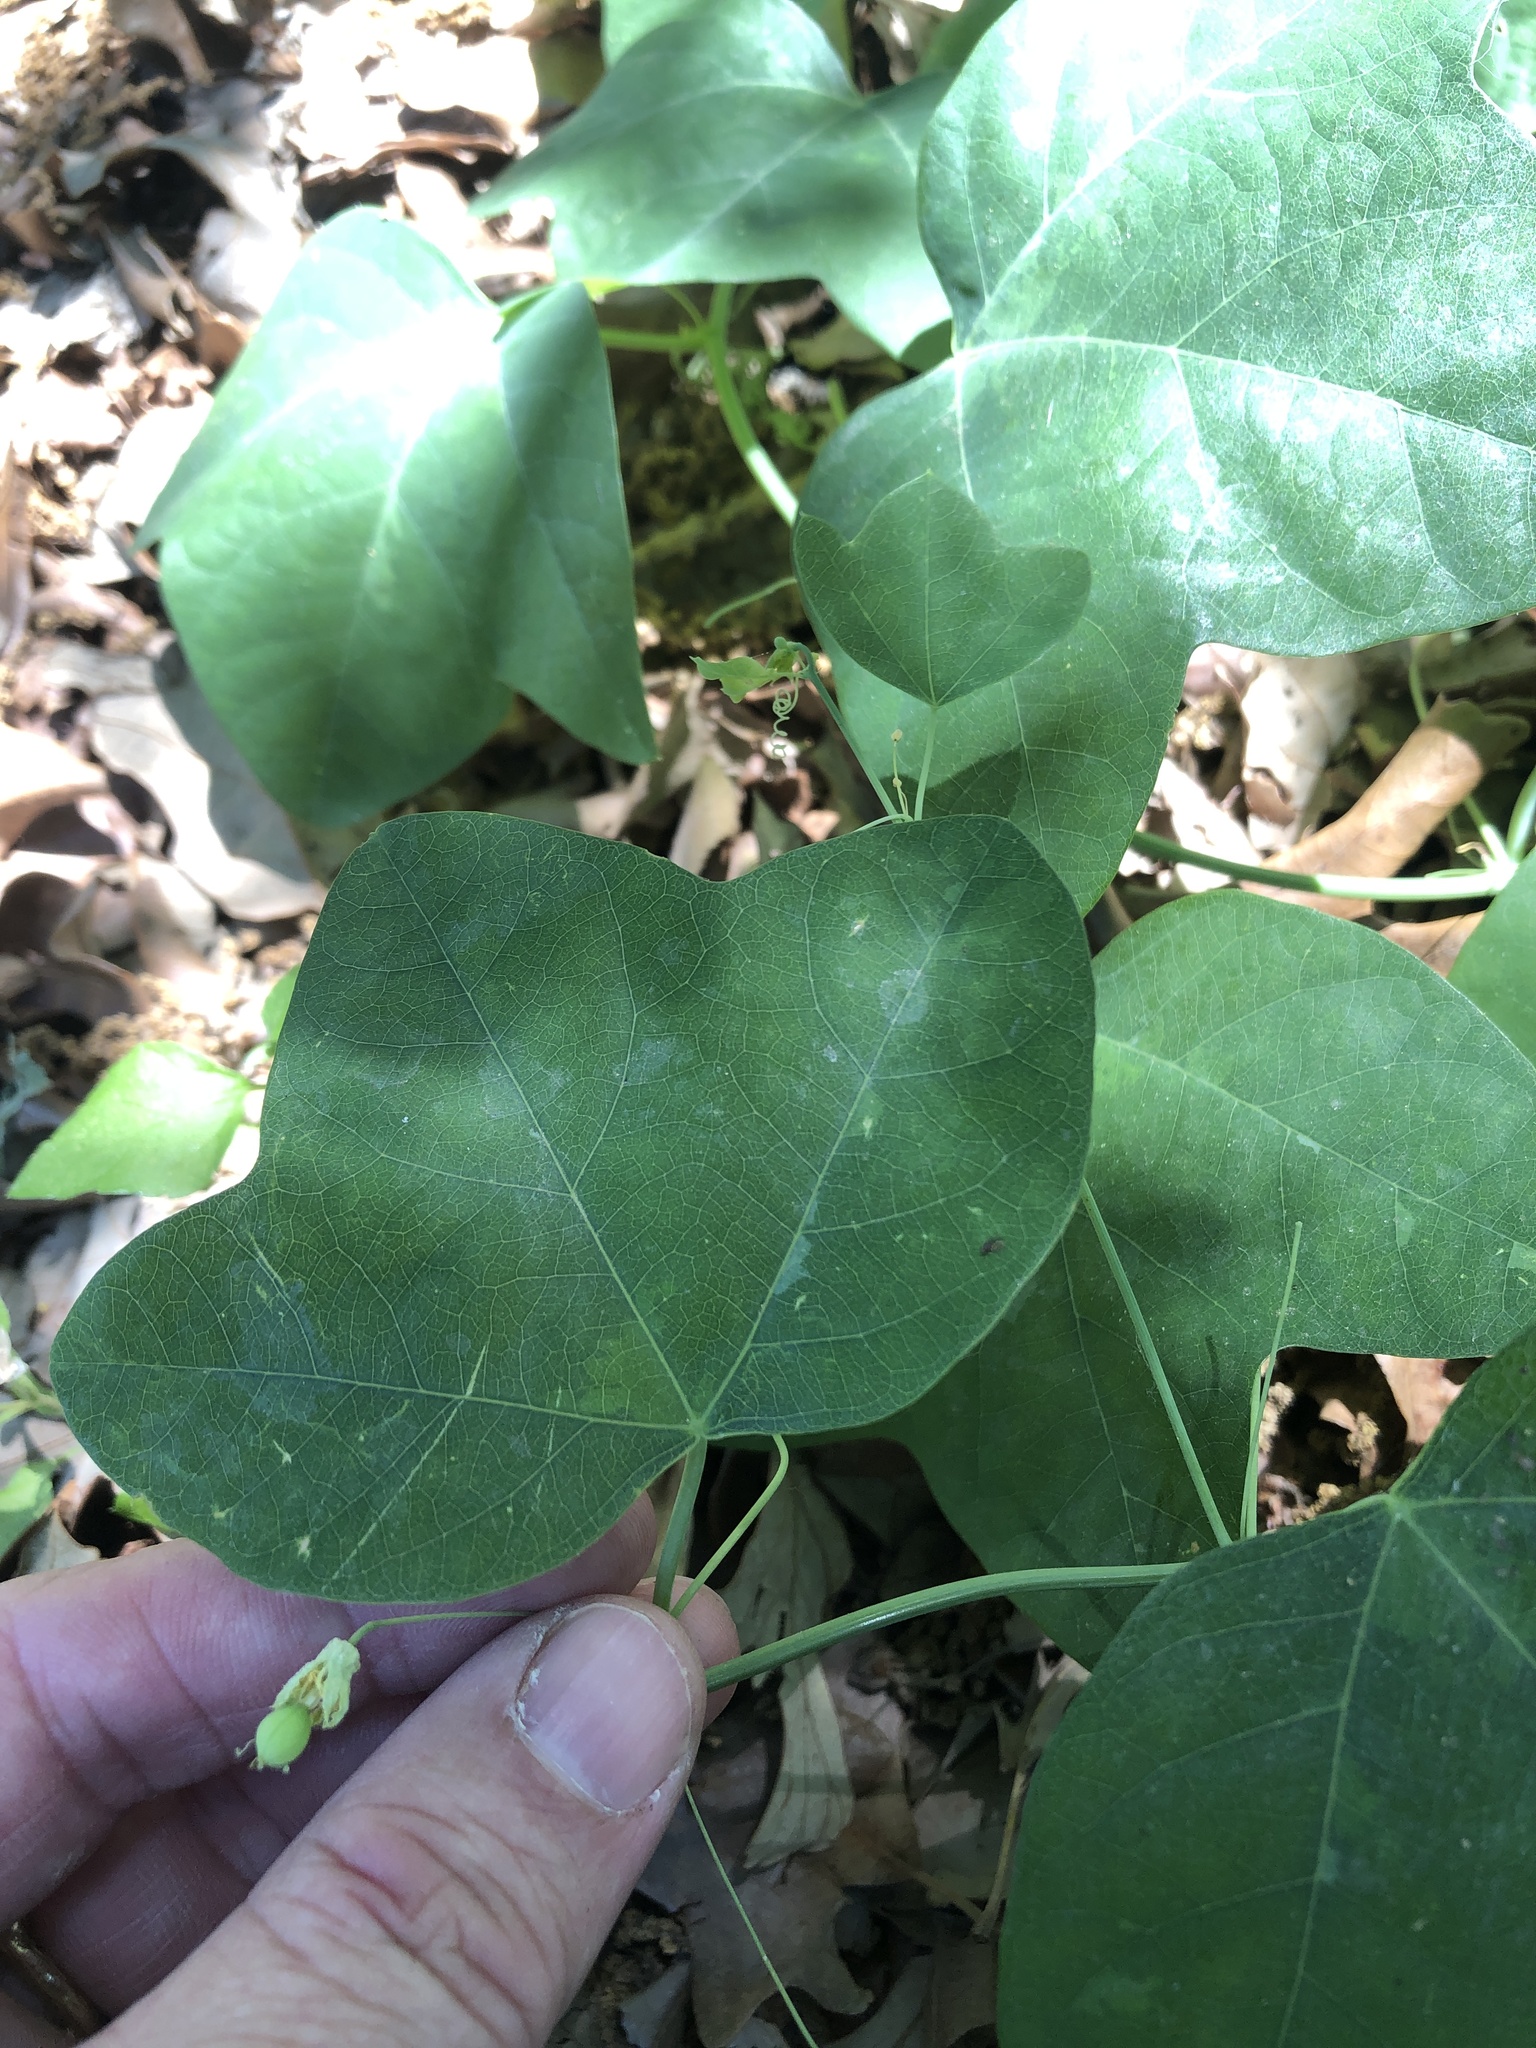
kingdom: Plantae
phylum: Tracheophyta
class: Magnoliopsida
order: Malpighiales
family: Passifloraceae
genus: Passiflora
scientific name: Passiflora lutea
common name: Yellow passionflower
